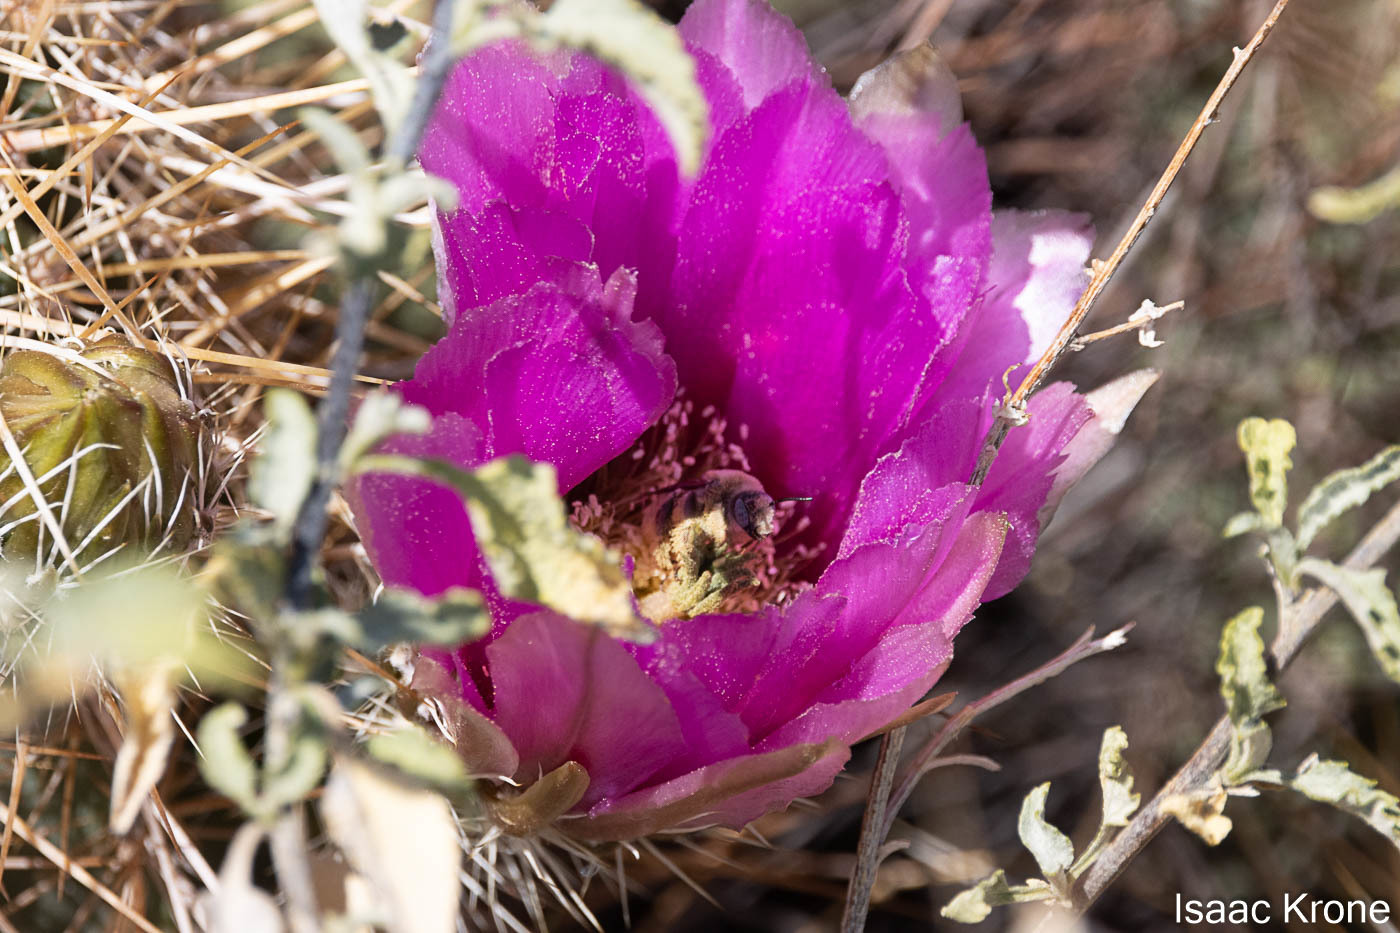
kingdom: Plantae
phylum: Tracheophyta
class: Magnoliopsida
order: Caryophyllales
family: Cactaceae
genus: Echinocereus
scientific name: Echinocereus engelmannii
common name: Engelmann's hedgehog cactus
